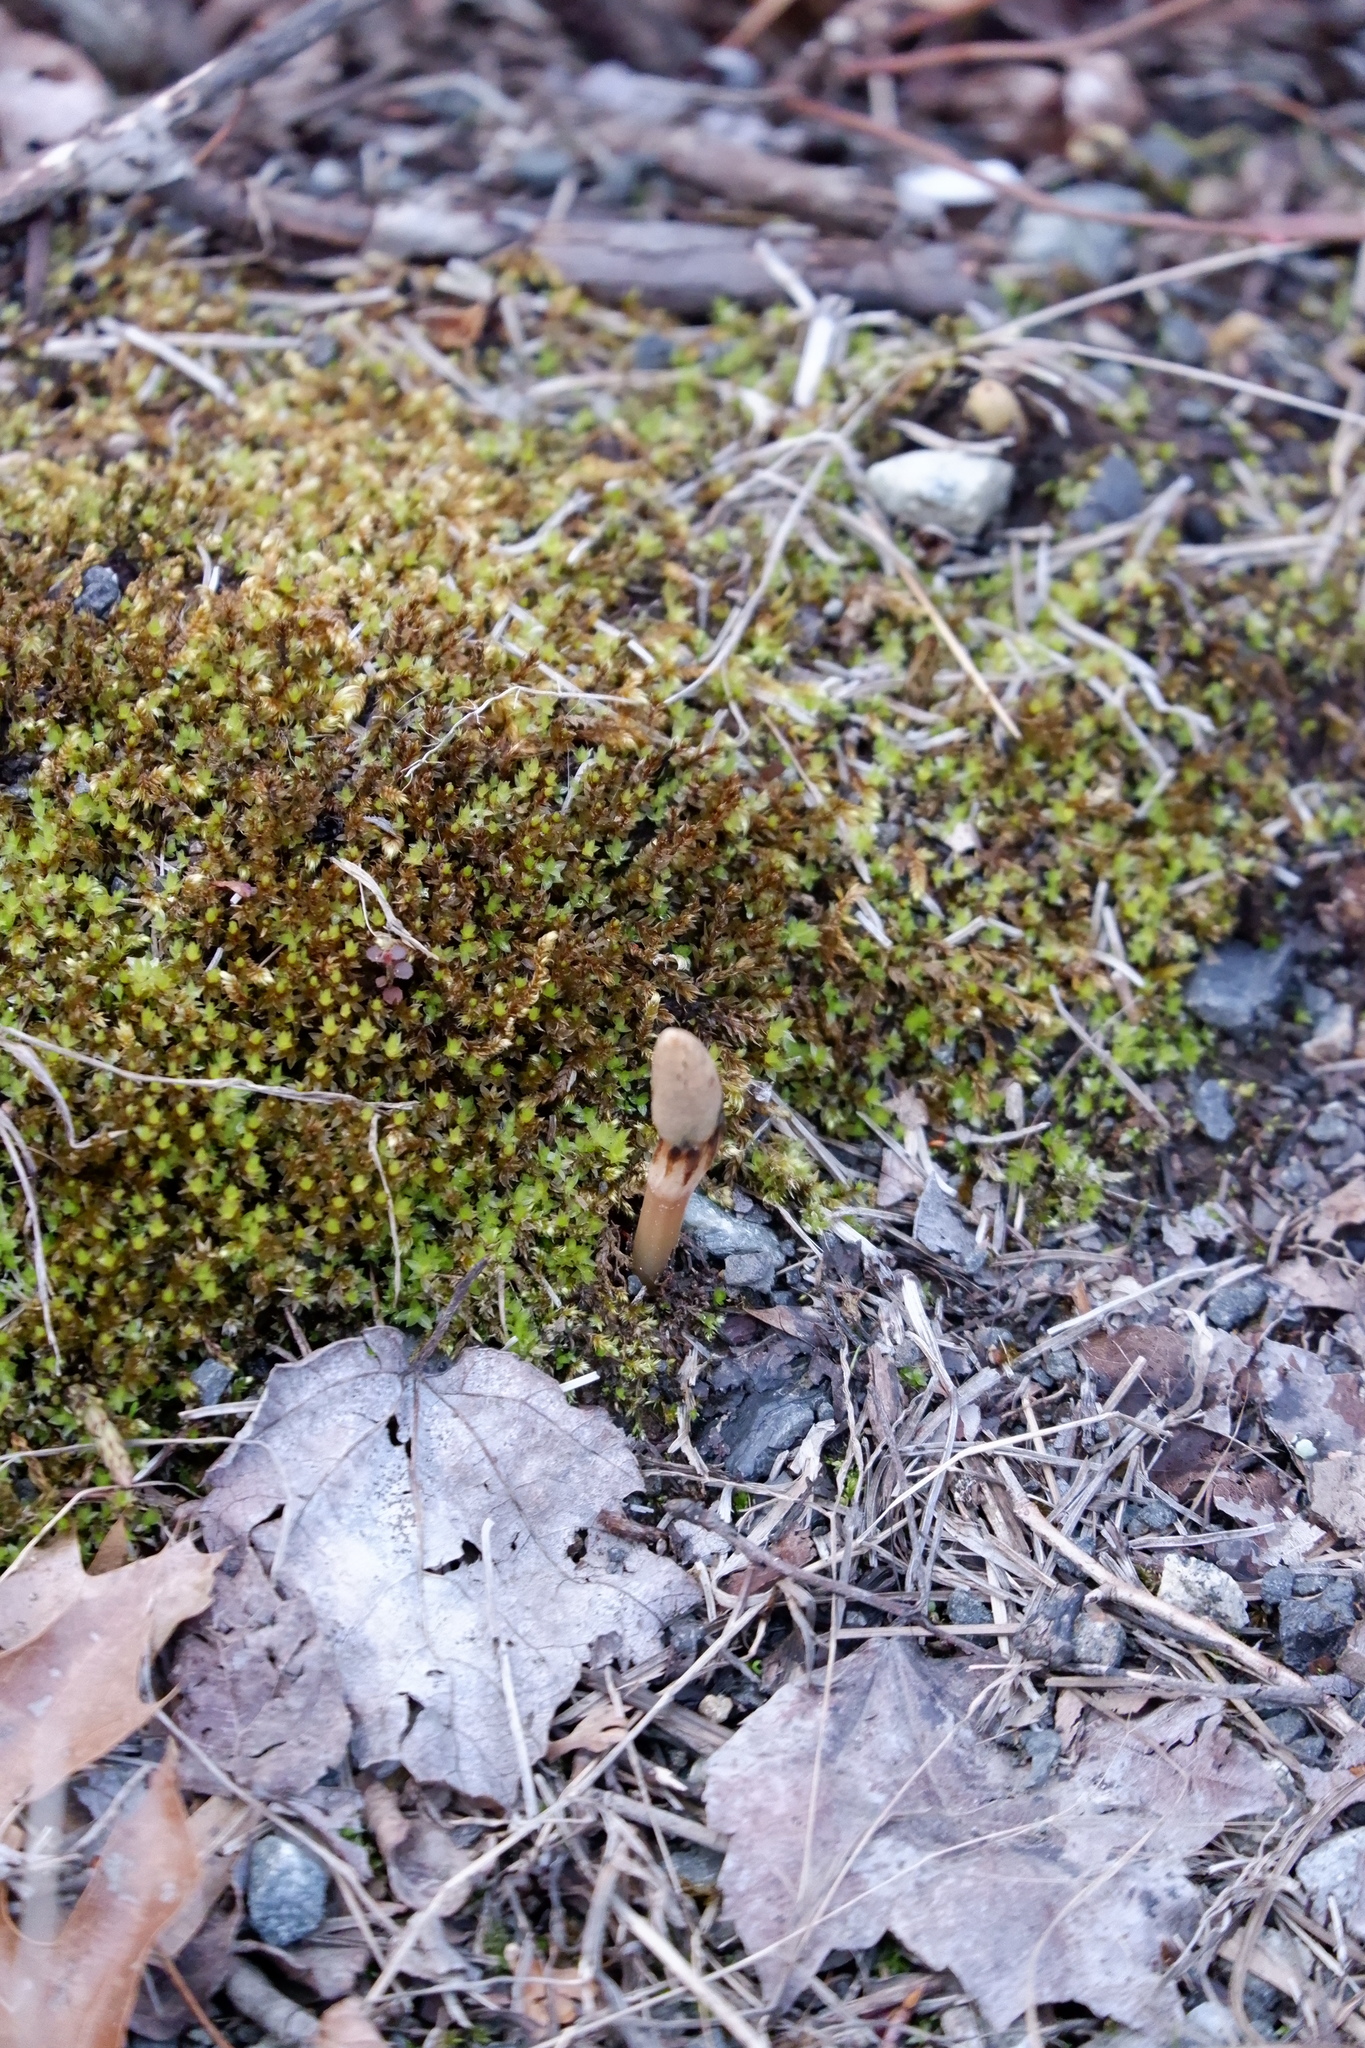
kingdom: Plantae
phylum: Tracheophyta
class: Polypodiopsida
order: Equisetales
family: Equisetaceae
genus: Equisetum
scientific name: Equisetum arvense
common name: Field horsetail
